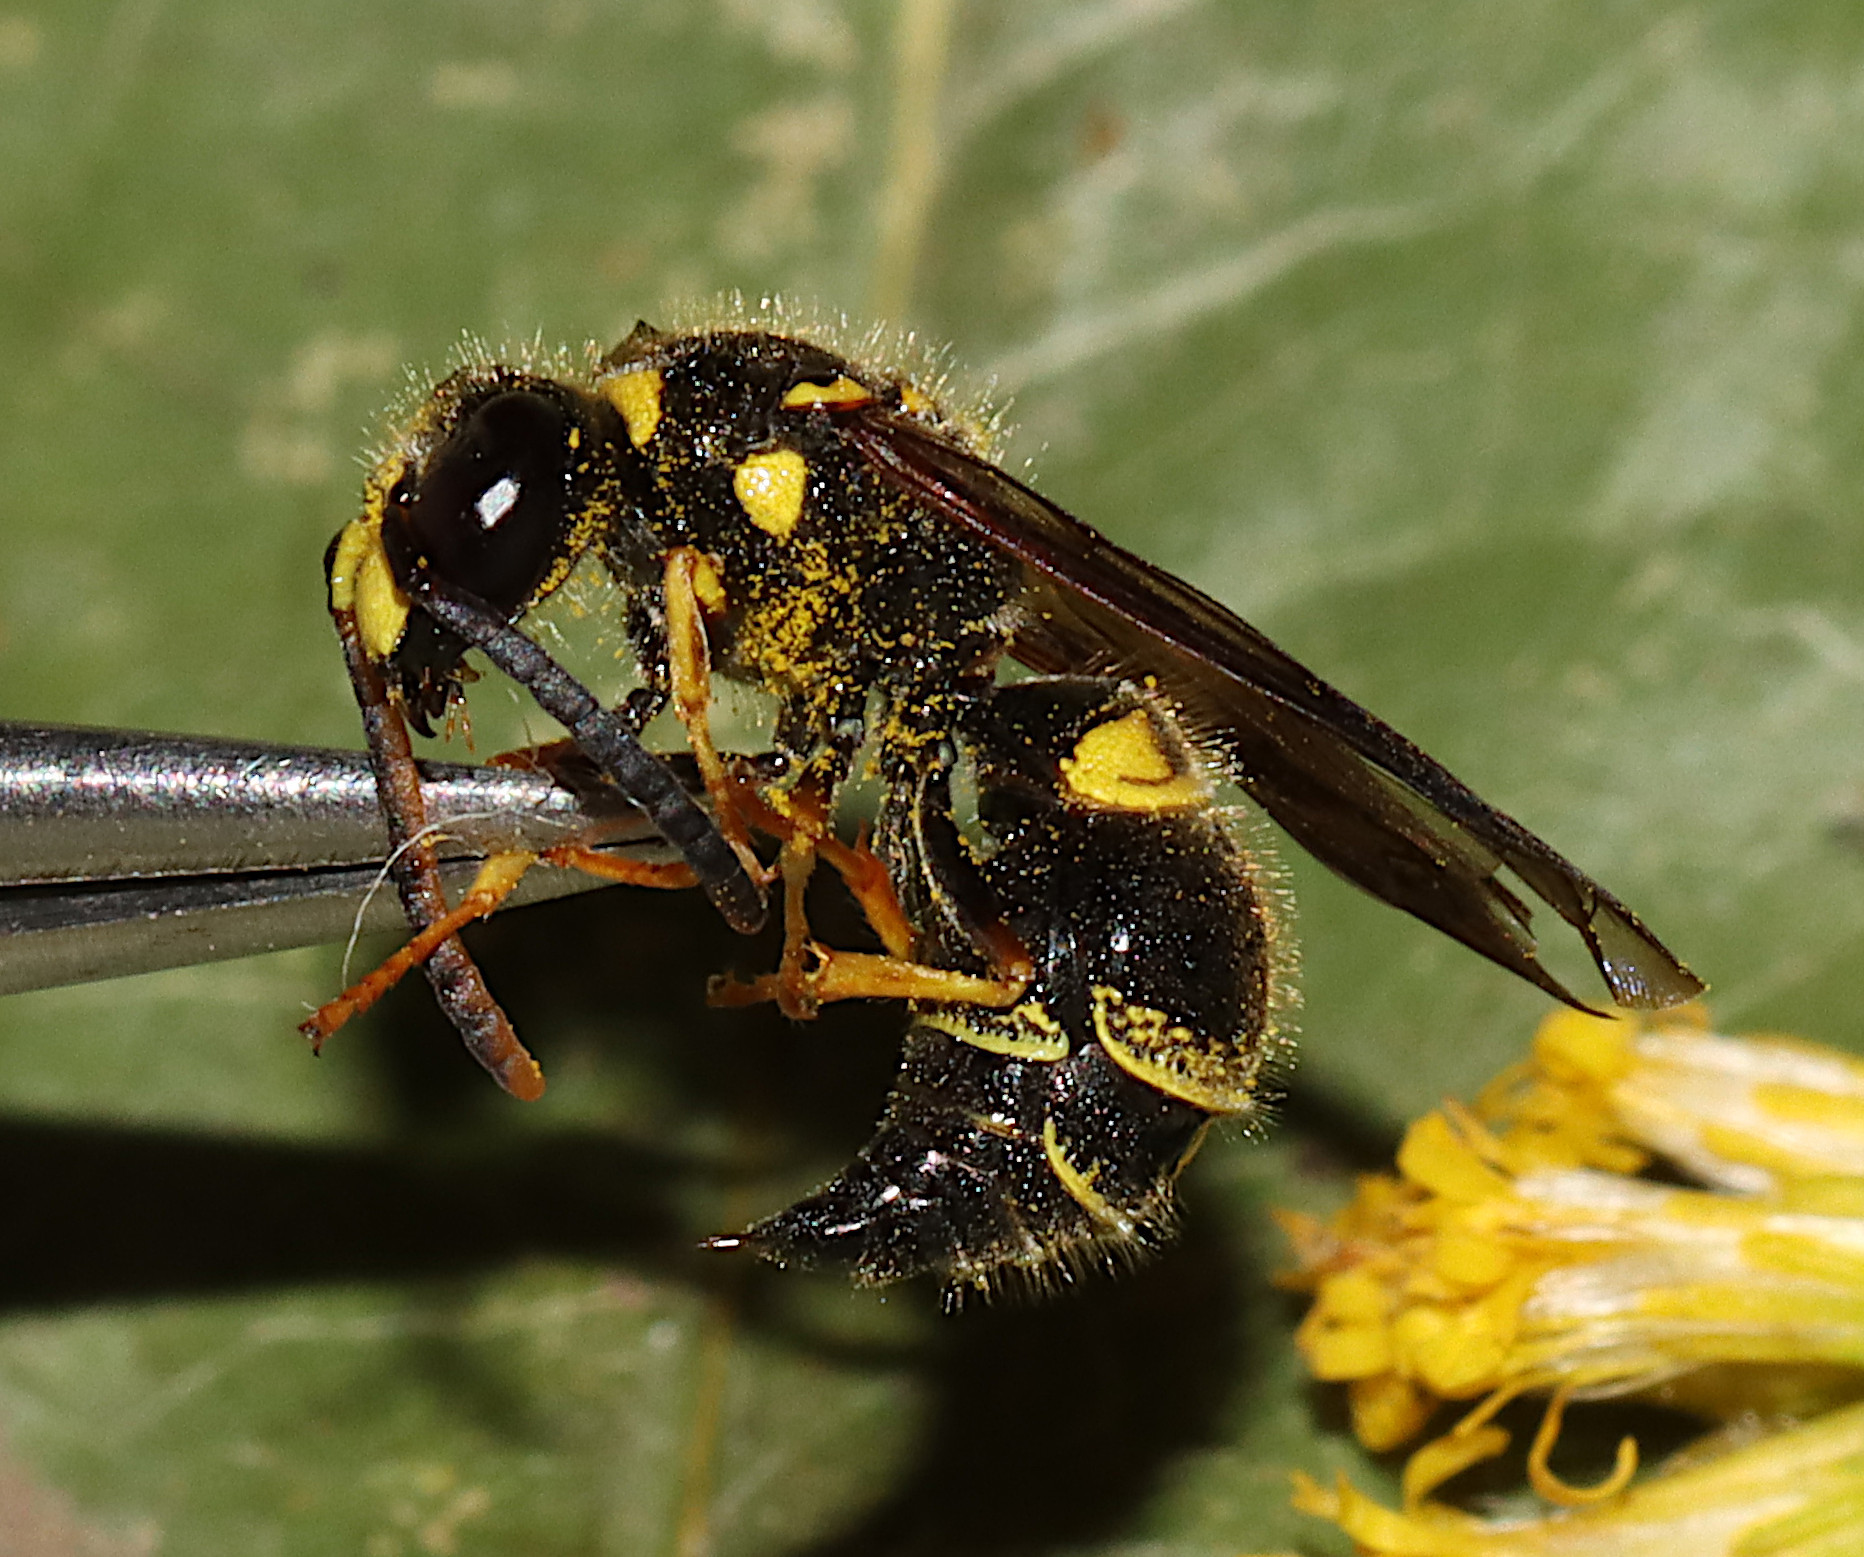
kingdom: Animalia
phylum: Arthropoda
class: Insecta
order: Hymenoptera
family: Vespidae
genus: Ancistrocerus
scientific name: Ancistrocerus campestris
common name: Smiling mason wasp
